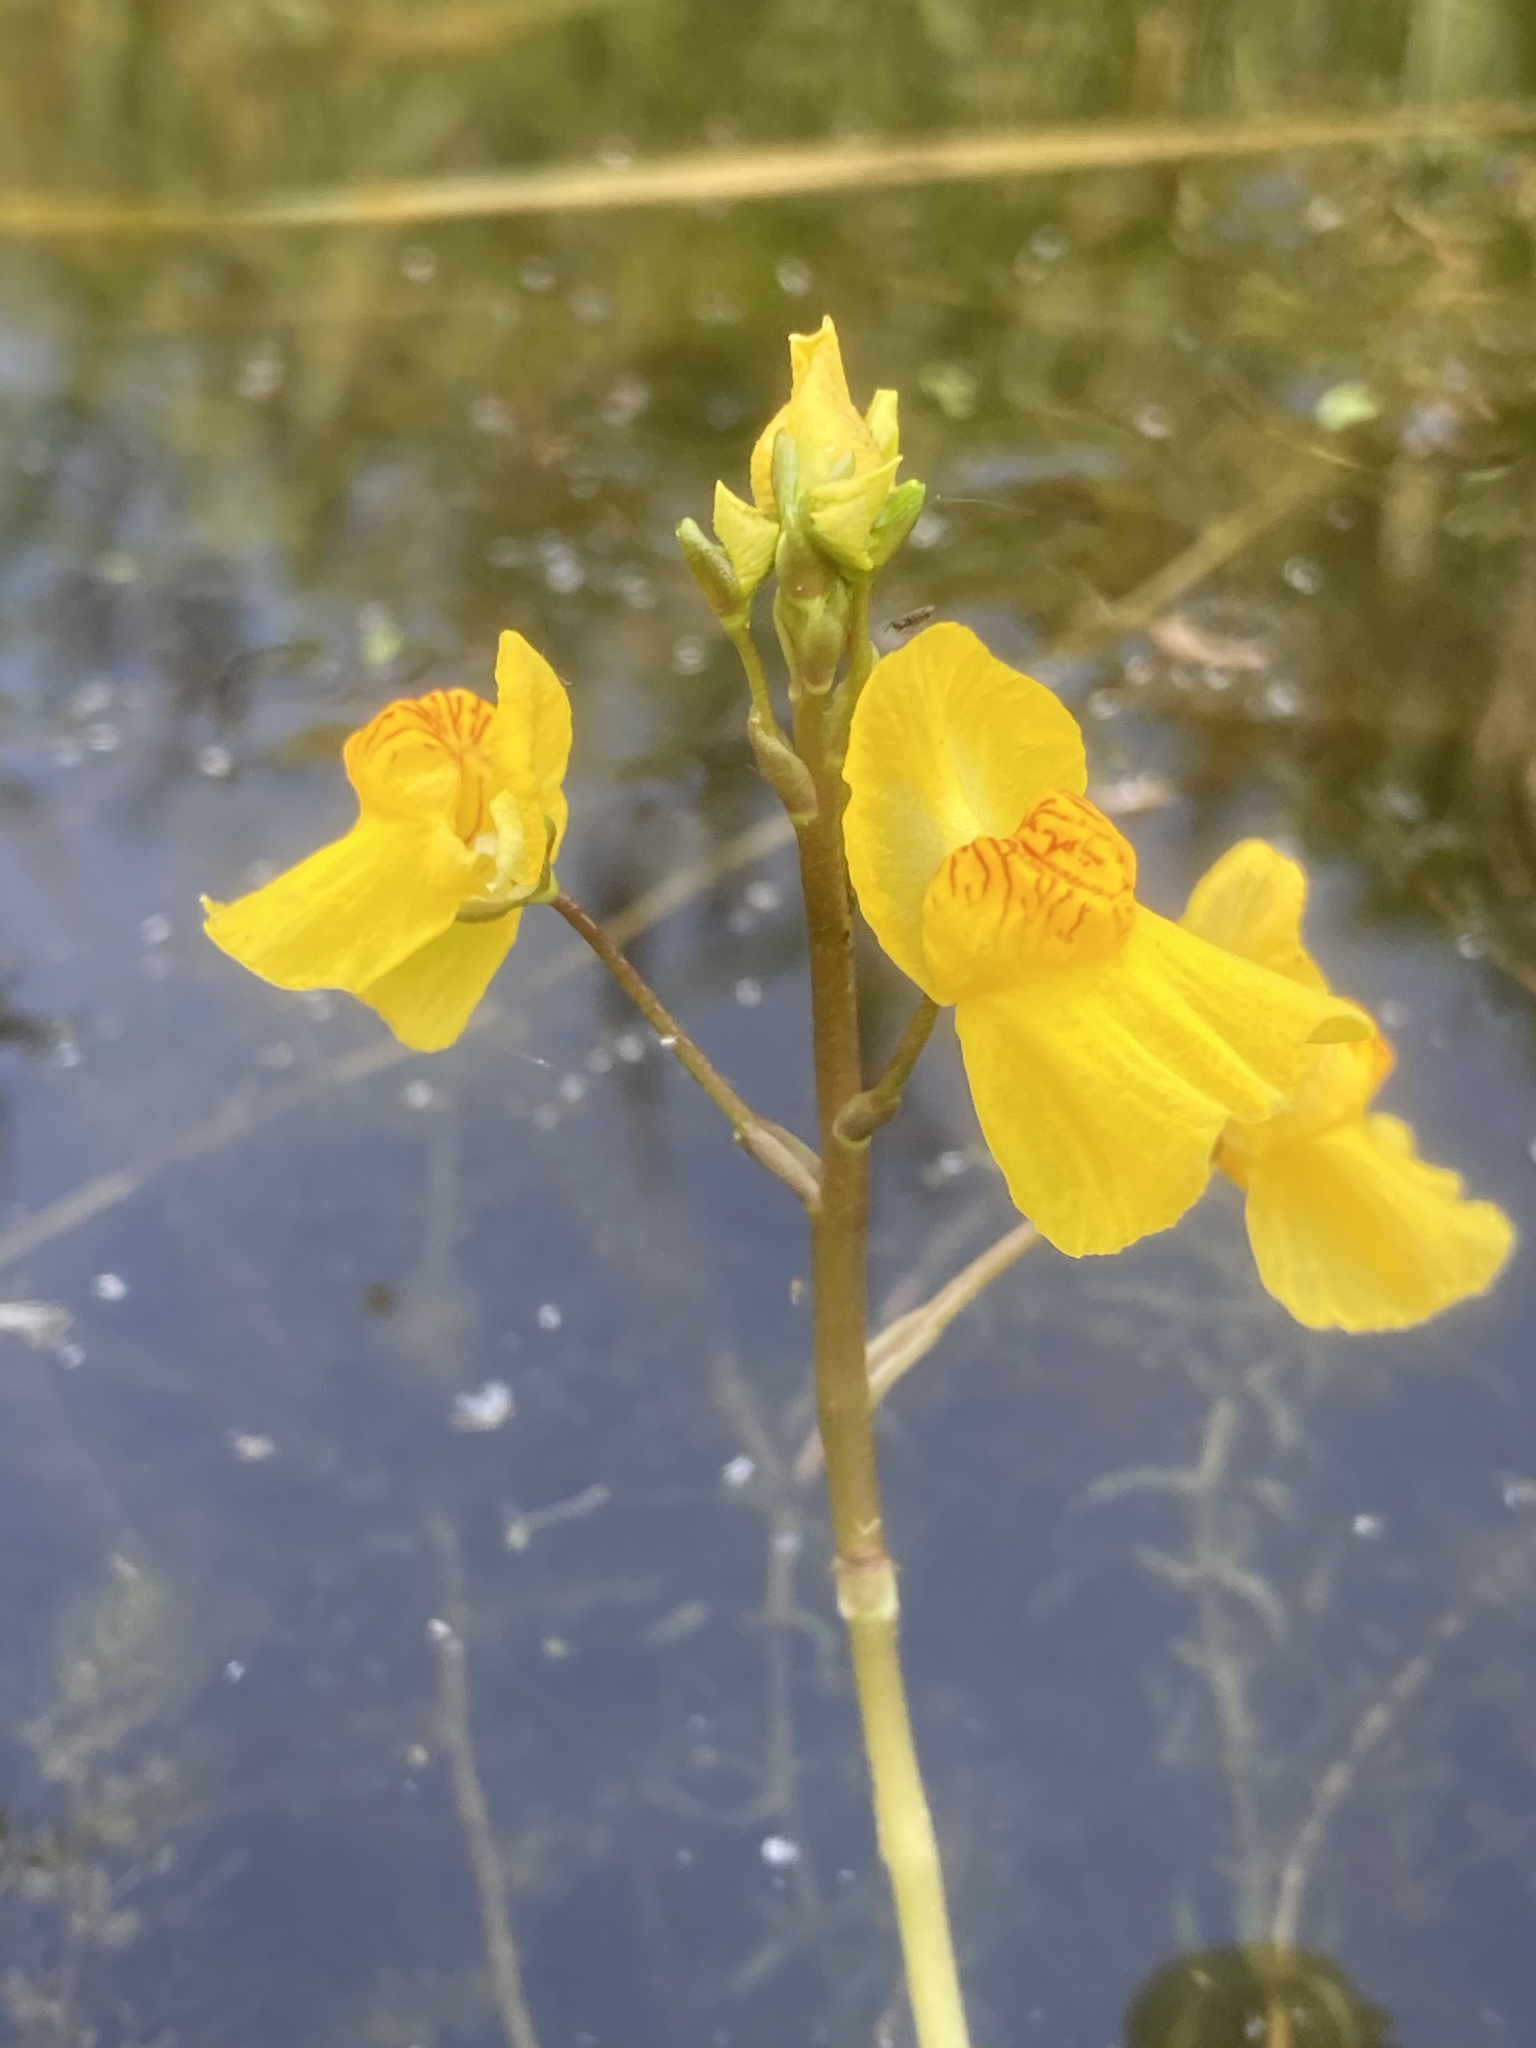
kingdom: Plantae
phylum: Tracheophyta
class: Magnoliopsida
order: Lamiales
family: Lentibulariaceae
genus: Utricularia
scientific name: Utricularia australis
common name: Bladderwort
